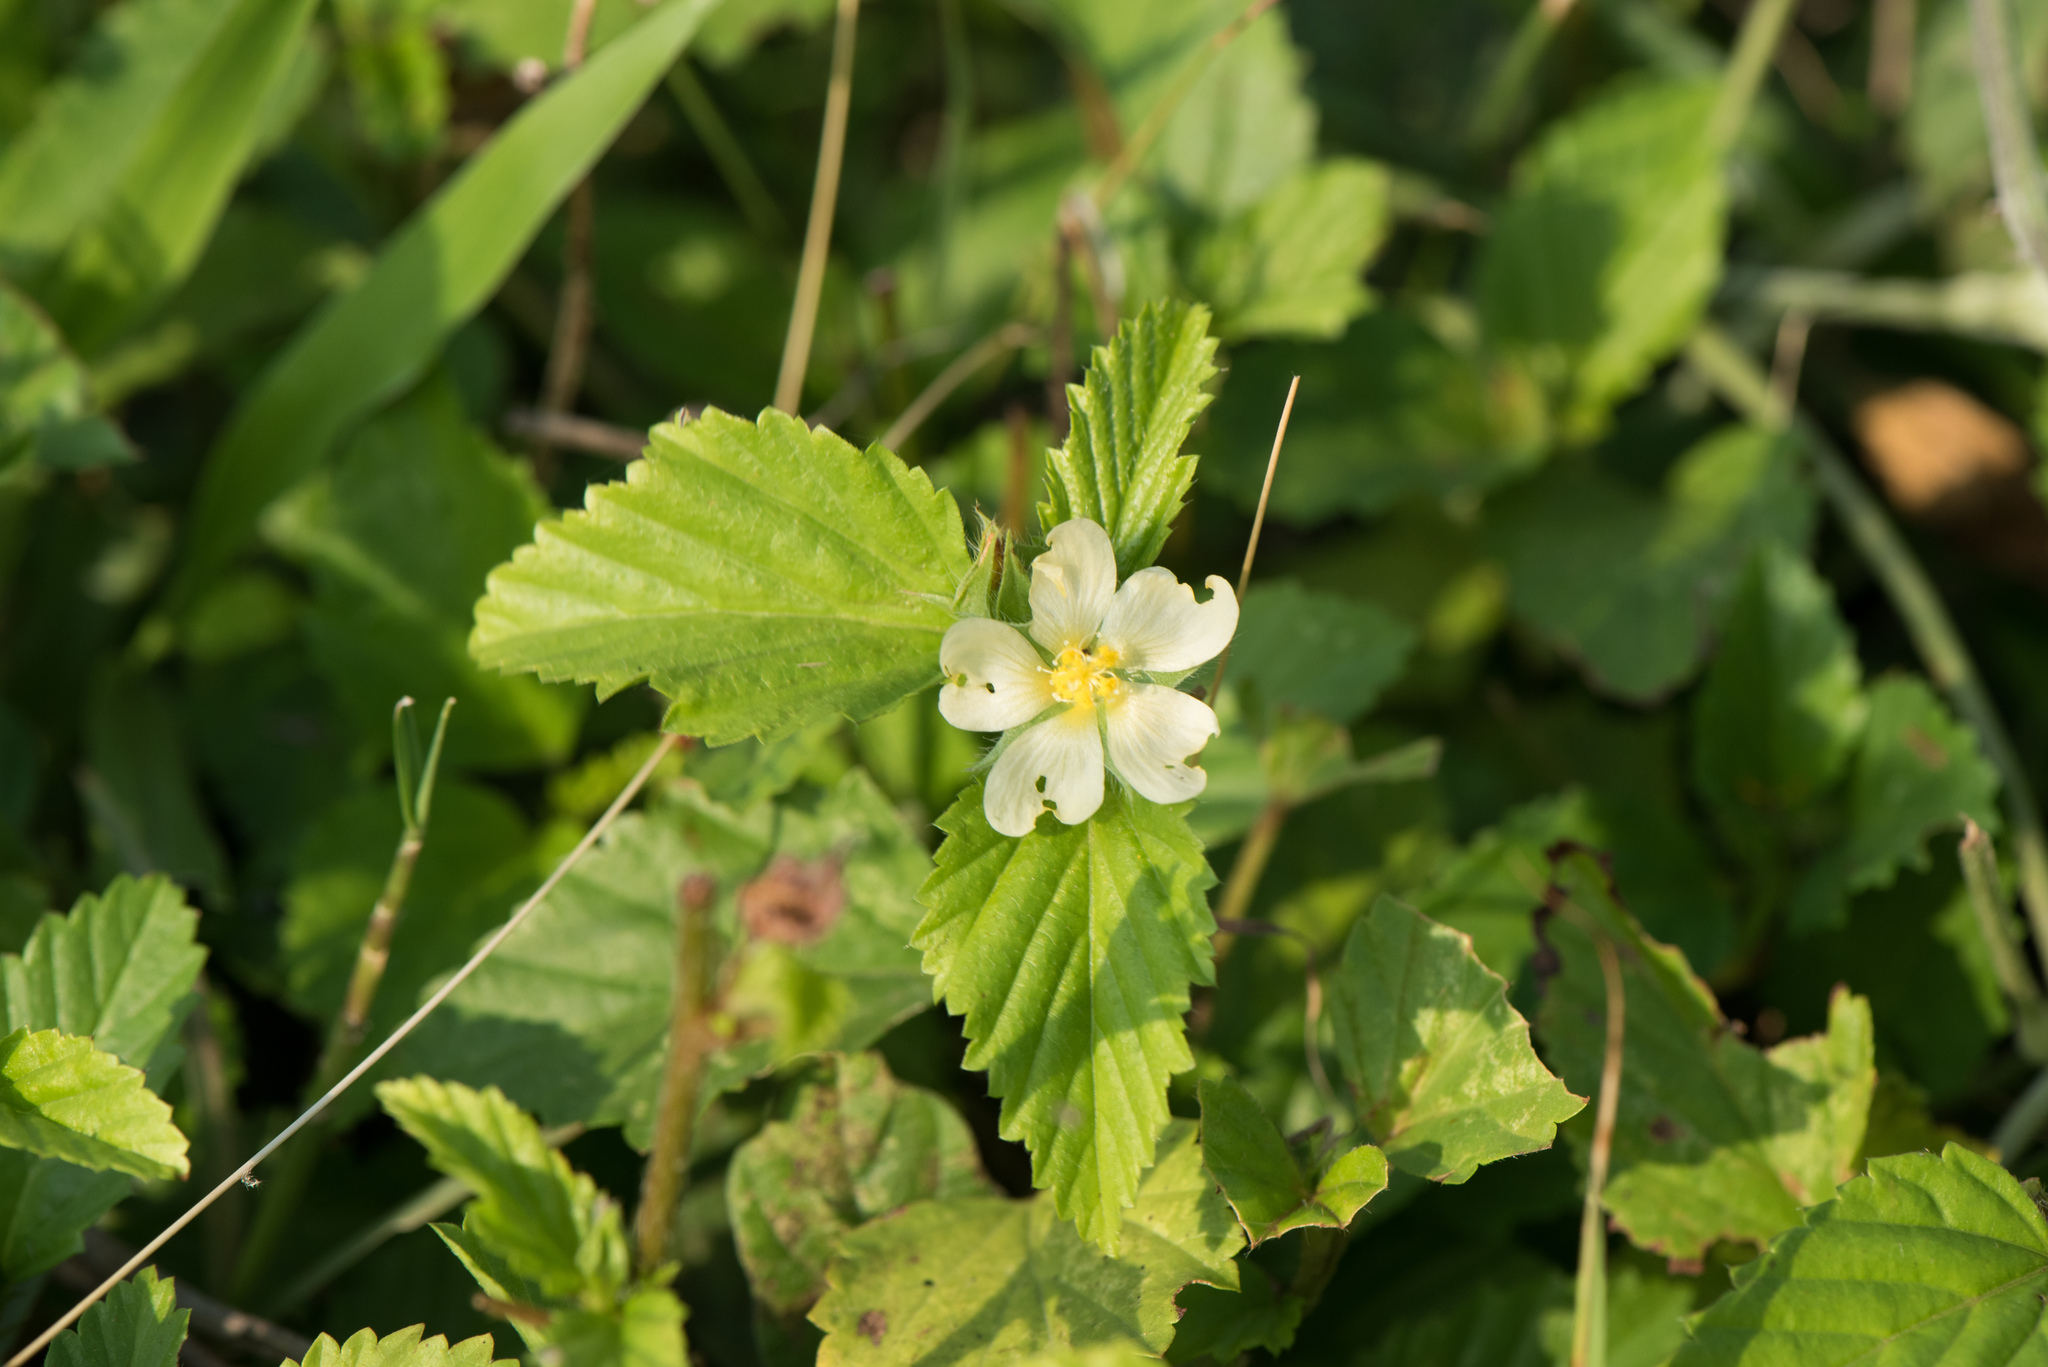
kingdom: Plantae
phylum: Tracheophyta
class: Magnoliopsida
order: Malvales
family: Malvaceae
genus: Malvastrum
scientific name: Malvastrum coromandelianum
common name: Threelobe false mallow
